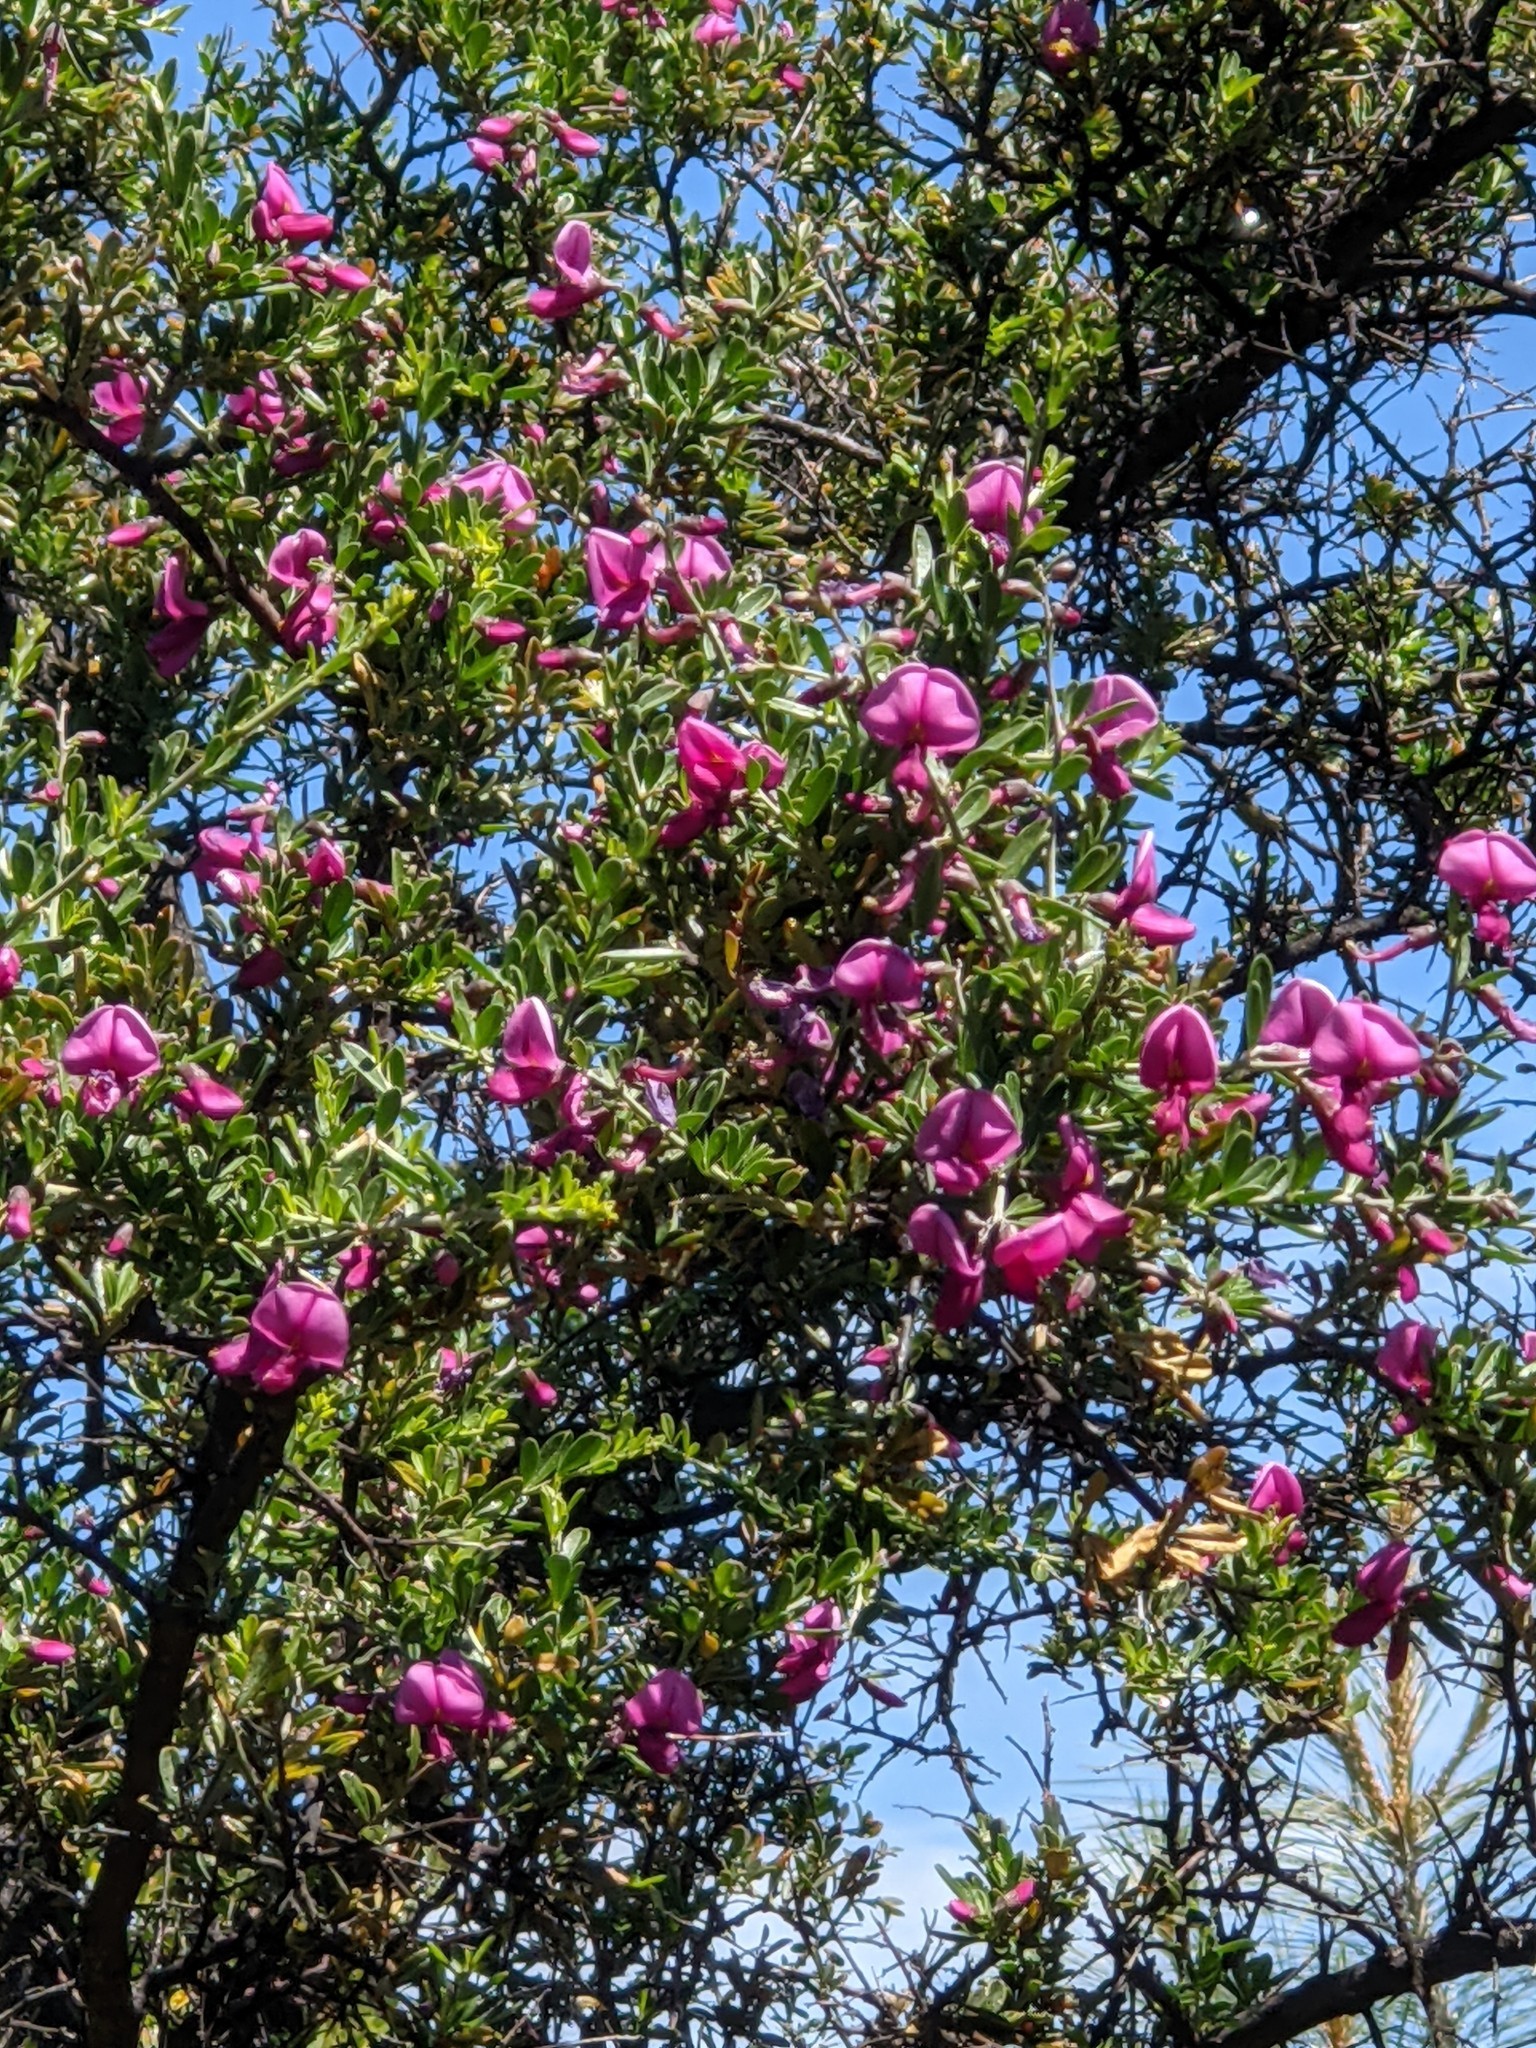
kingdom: Plantae
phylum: Tracheophyta
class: Magnoliopsida
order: Fabales
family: Fabaceae
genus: Pickeringia
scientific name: Pickeringia montana
